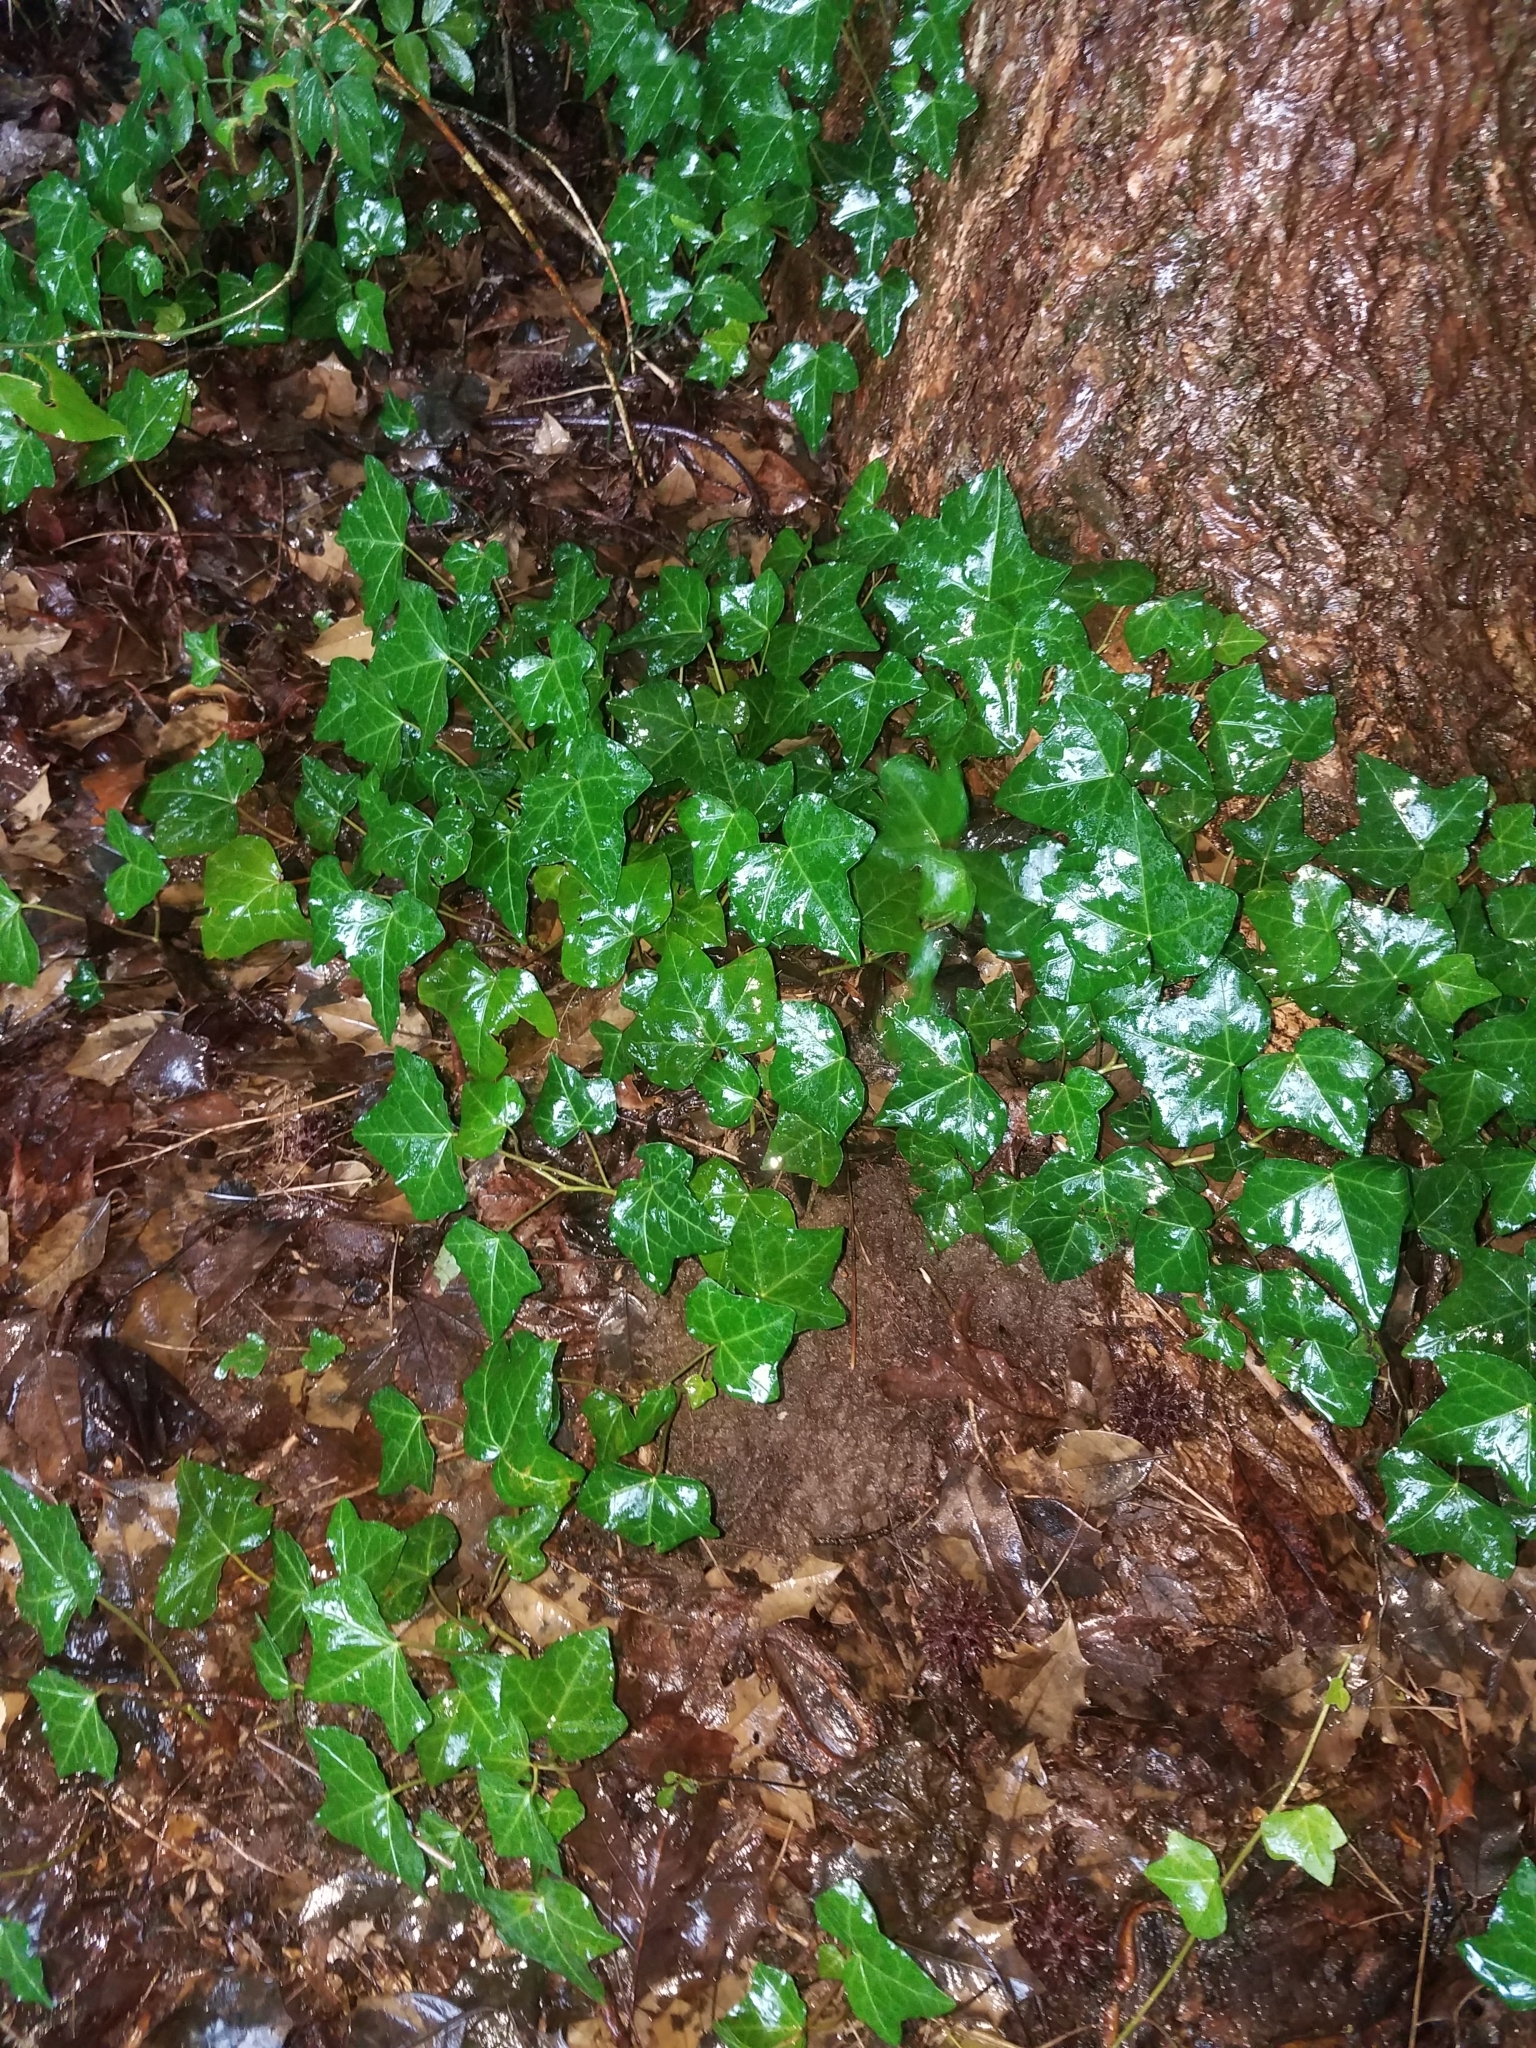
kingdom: Plantae
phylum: Tracheophyta
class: Magnoliopsida
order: Apiales
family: Araliaceae
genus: Hedera
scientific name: Hedera helix
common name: Ivy
